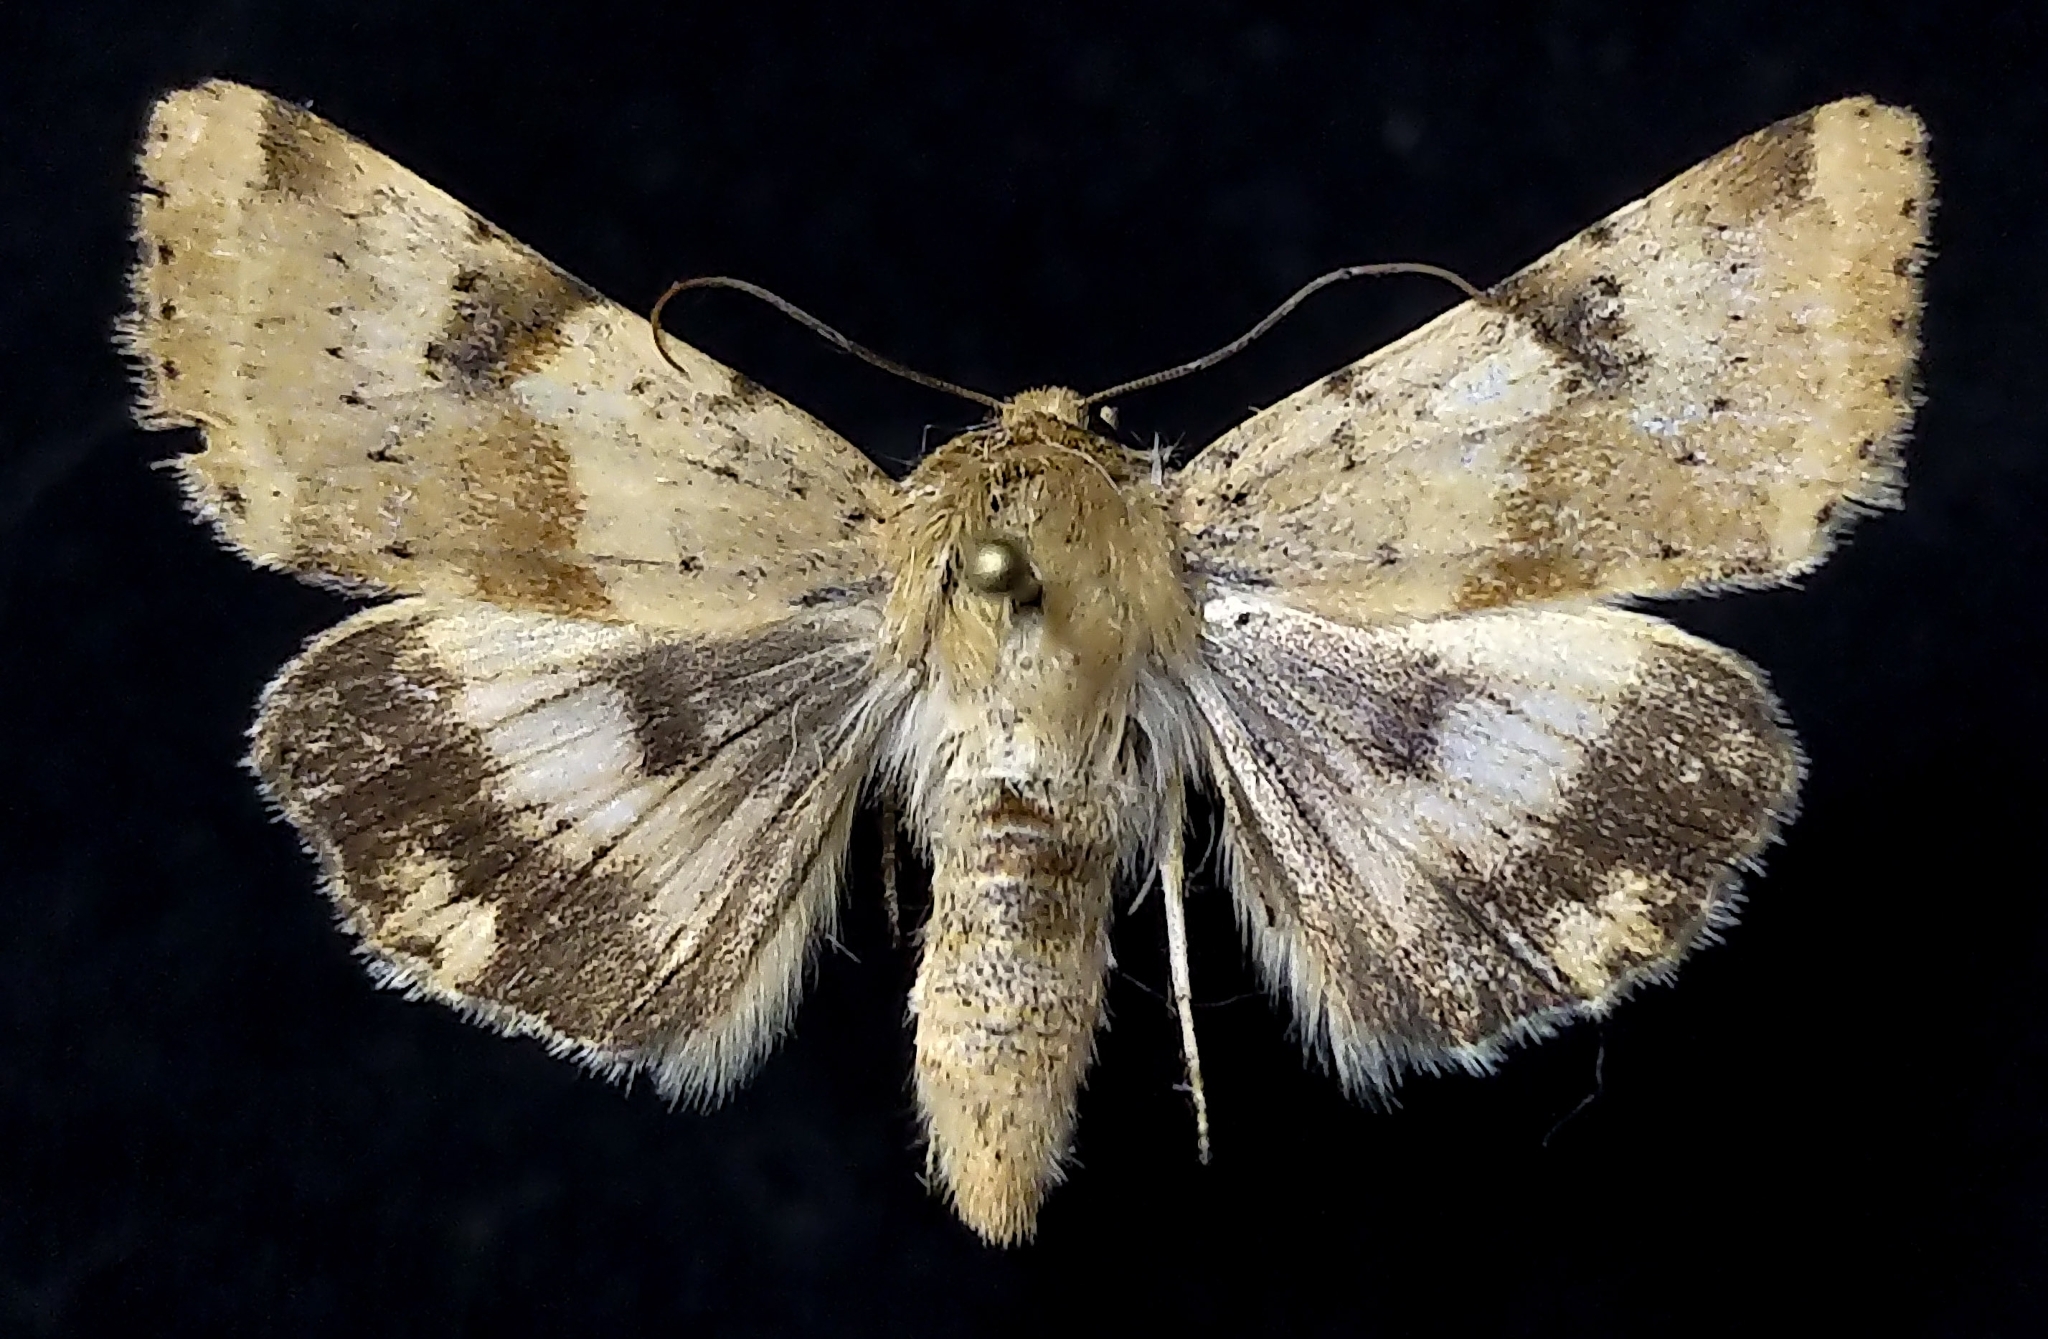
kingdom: Animalia
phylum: Arthropoda
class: Insecta
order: Lepidoptera
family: Noctuidae
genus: Heliothis
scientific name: Heliothis phloxiphaga
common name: Darker spotted straw moth
